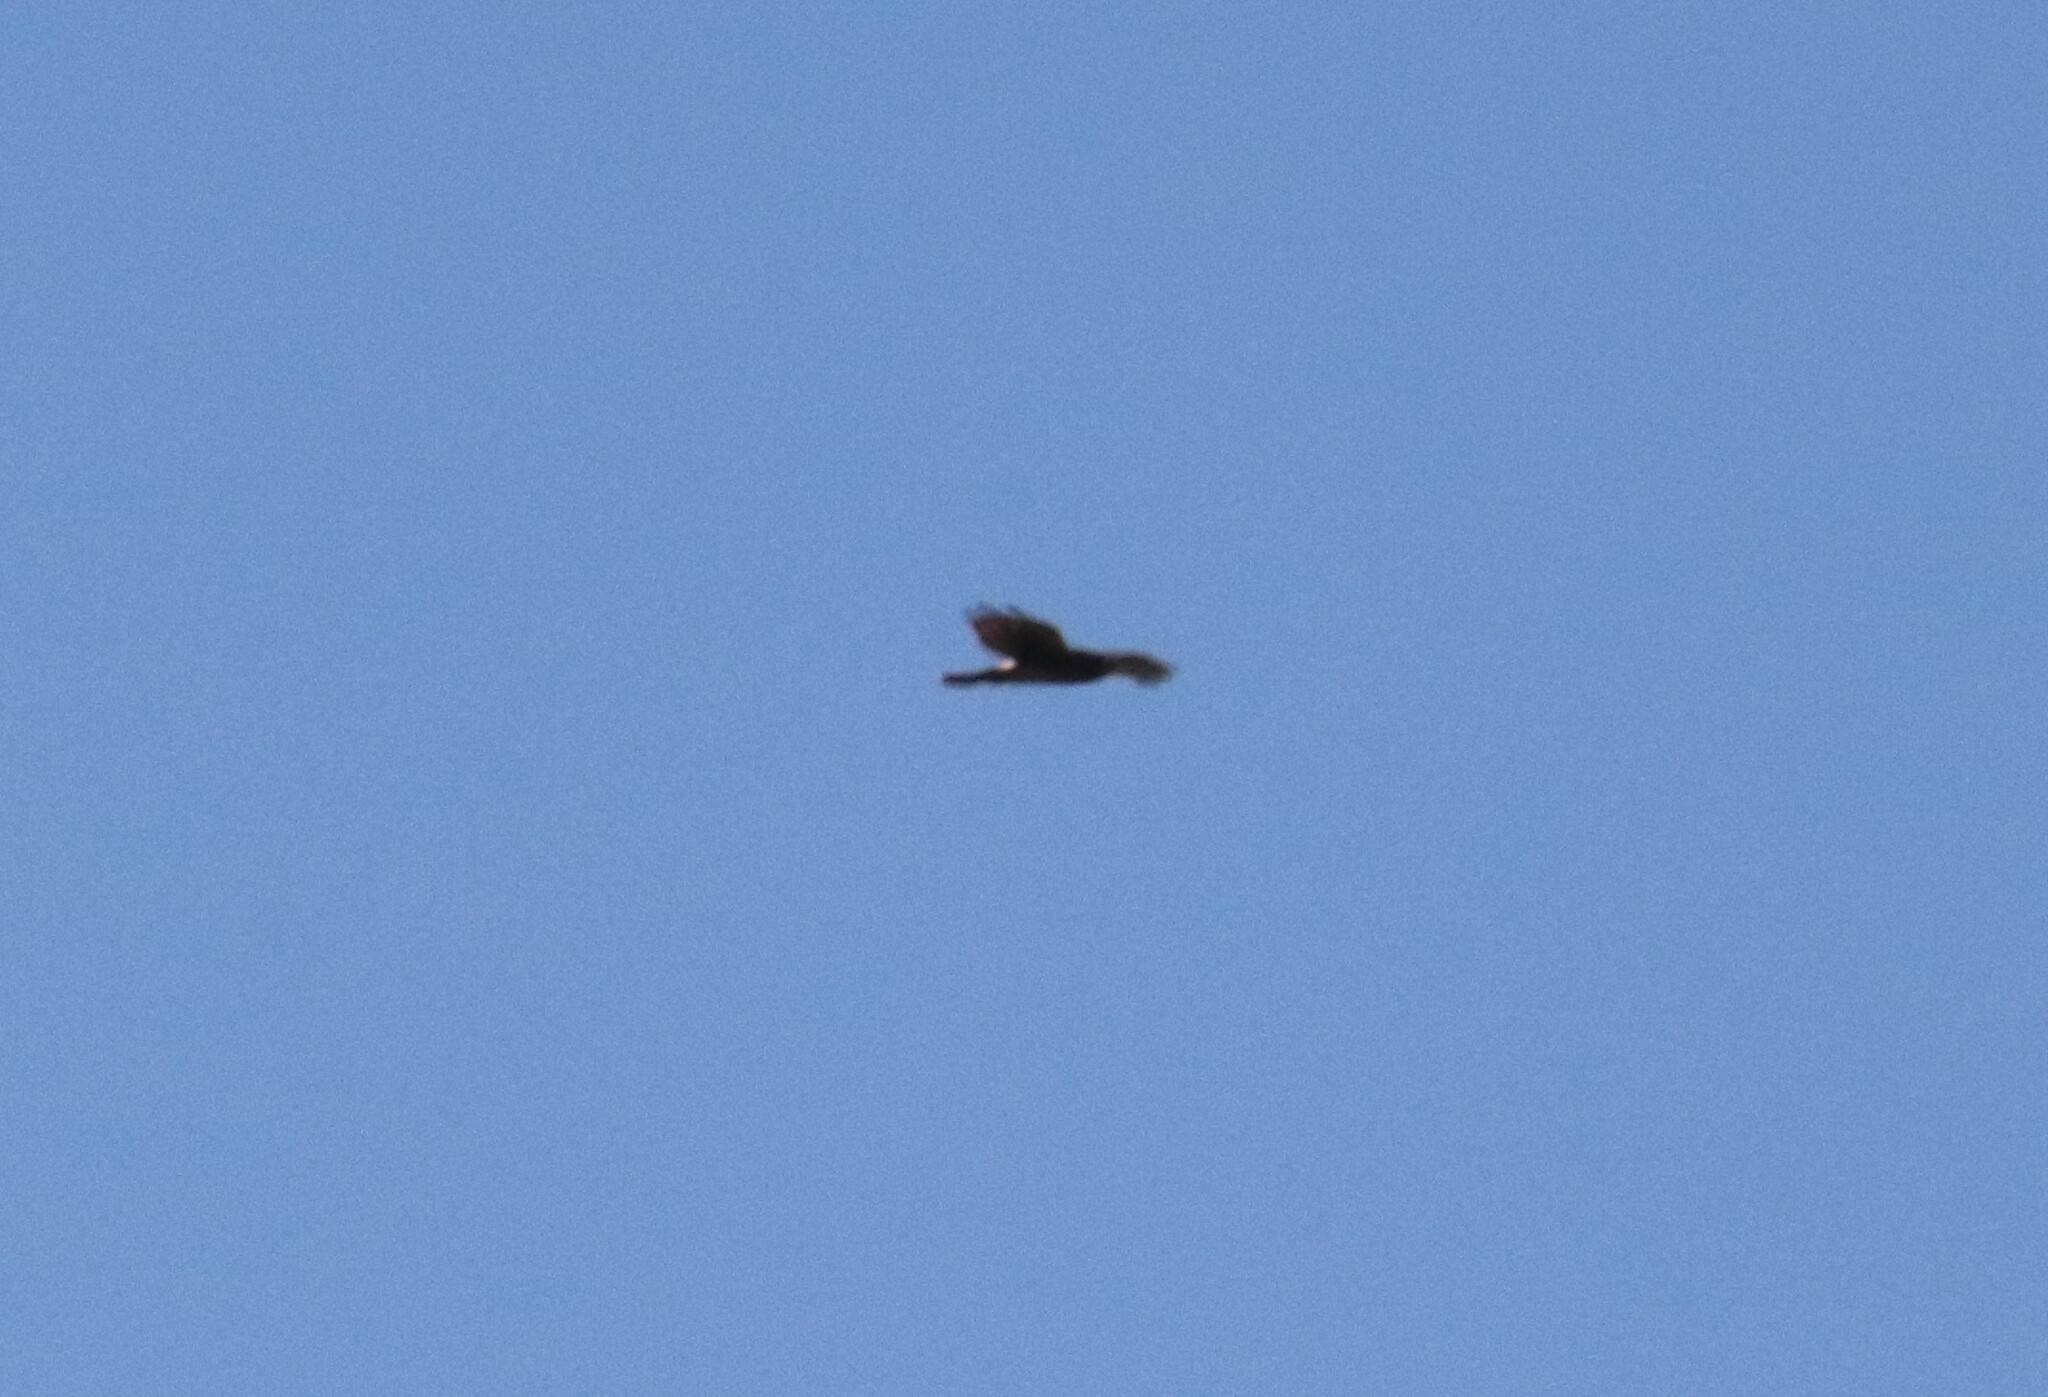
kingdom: Animalia
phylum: Chordata
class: Aves
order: Accipitriformes
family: Accipitridae
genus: Circus
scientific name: Circus cyaneus
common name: Hen harrier
